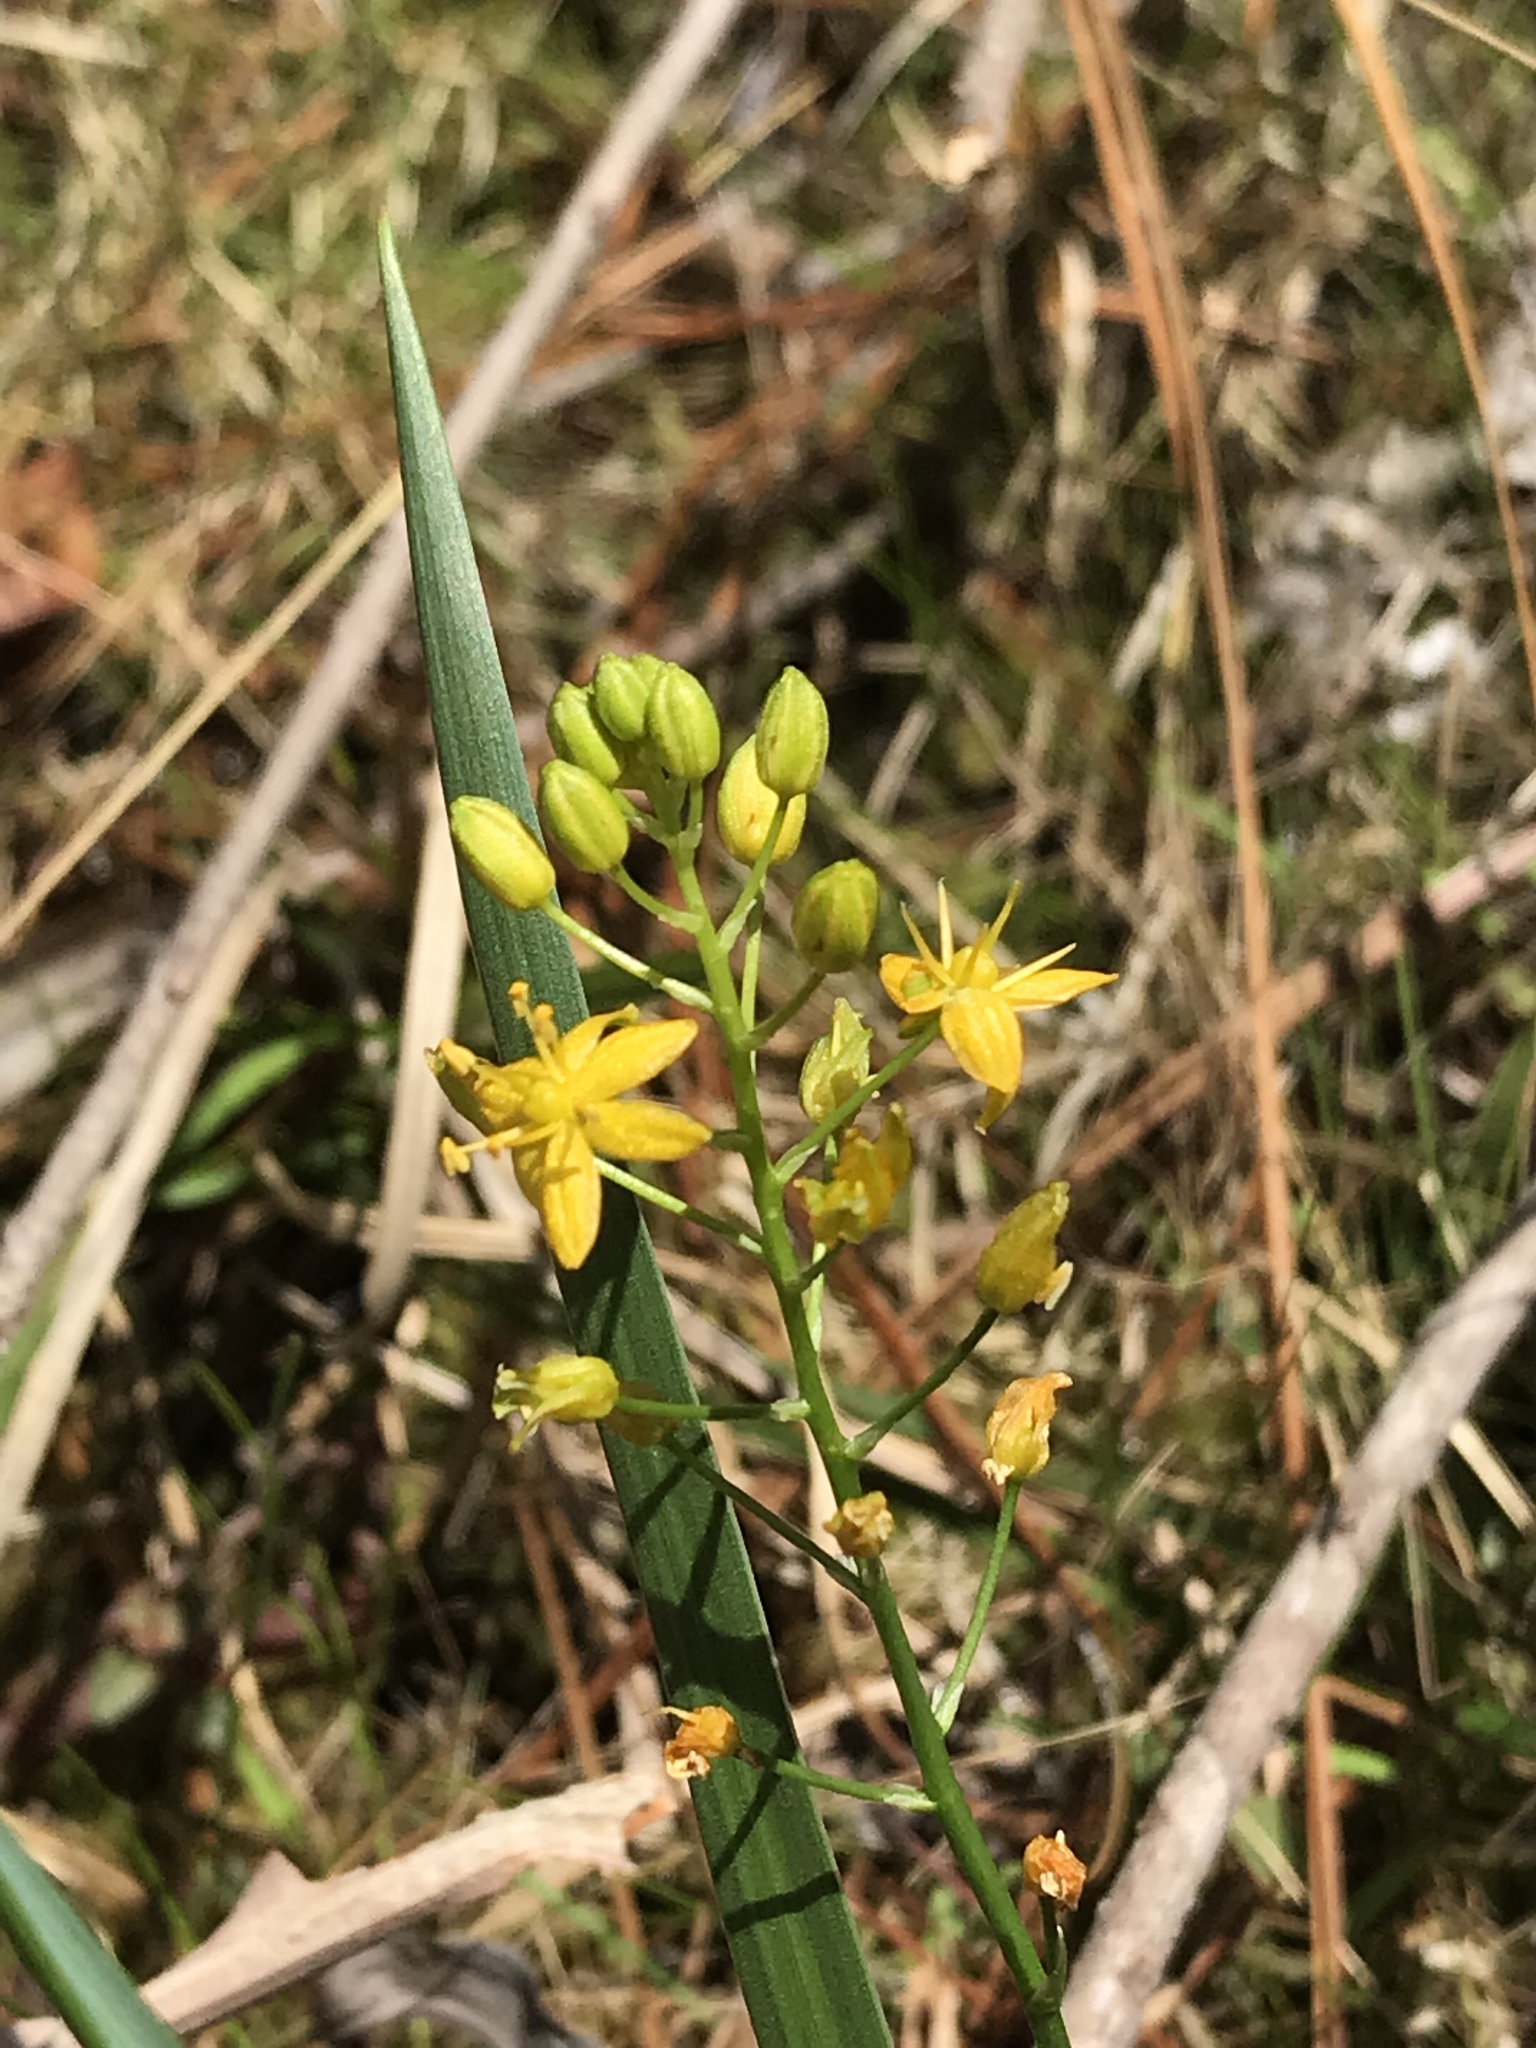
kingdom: Plantae
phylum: Tracheophyta
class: Liliopsida
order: Asparagales
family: Asparagaceae
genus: Schoenolirion
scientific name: Schoenolirion croceum
